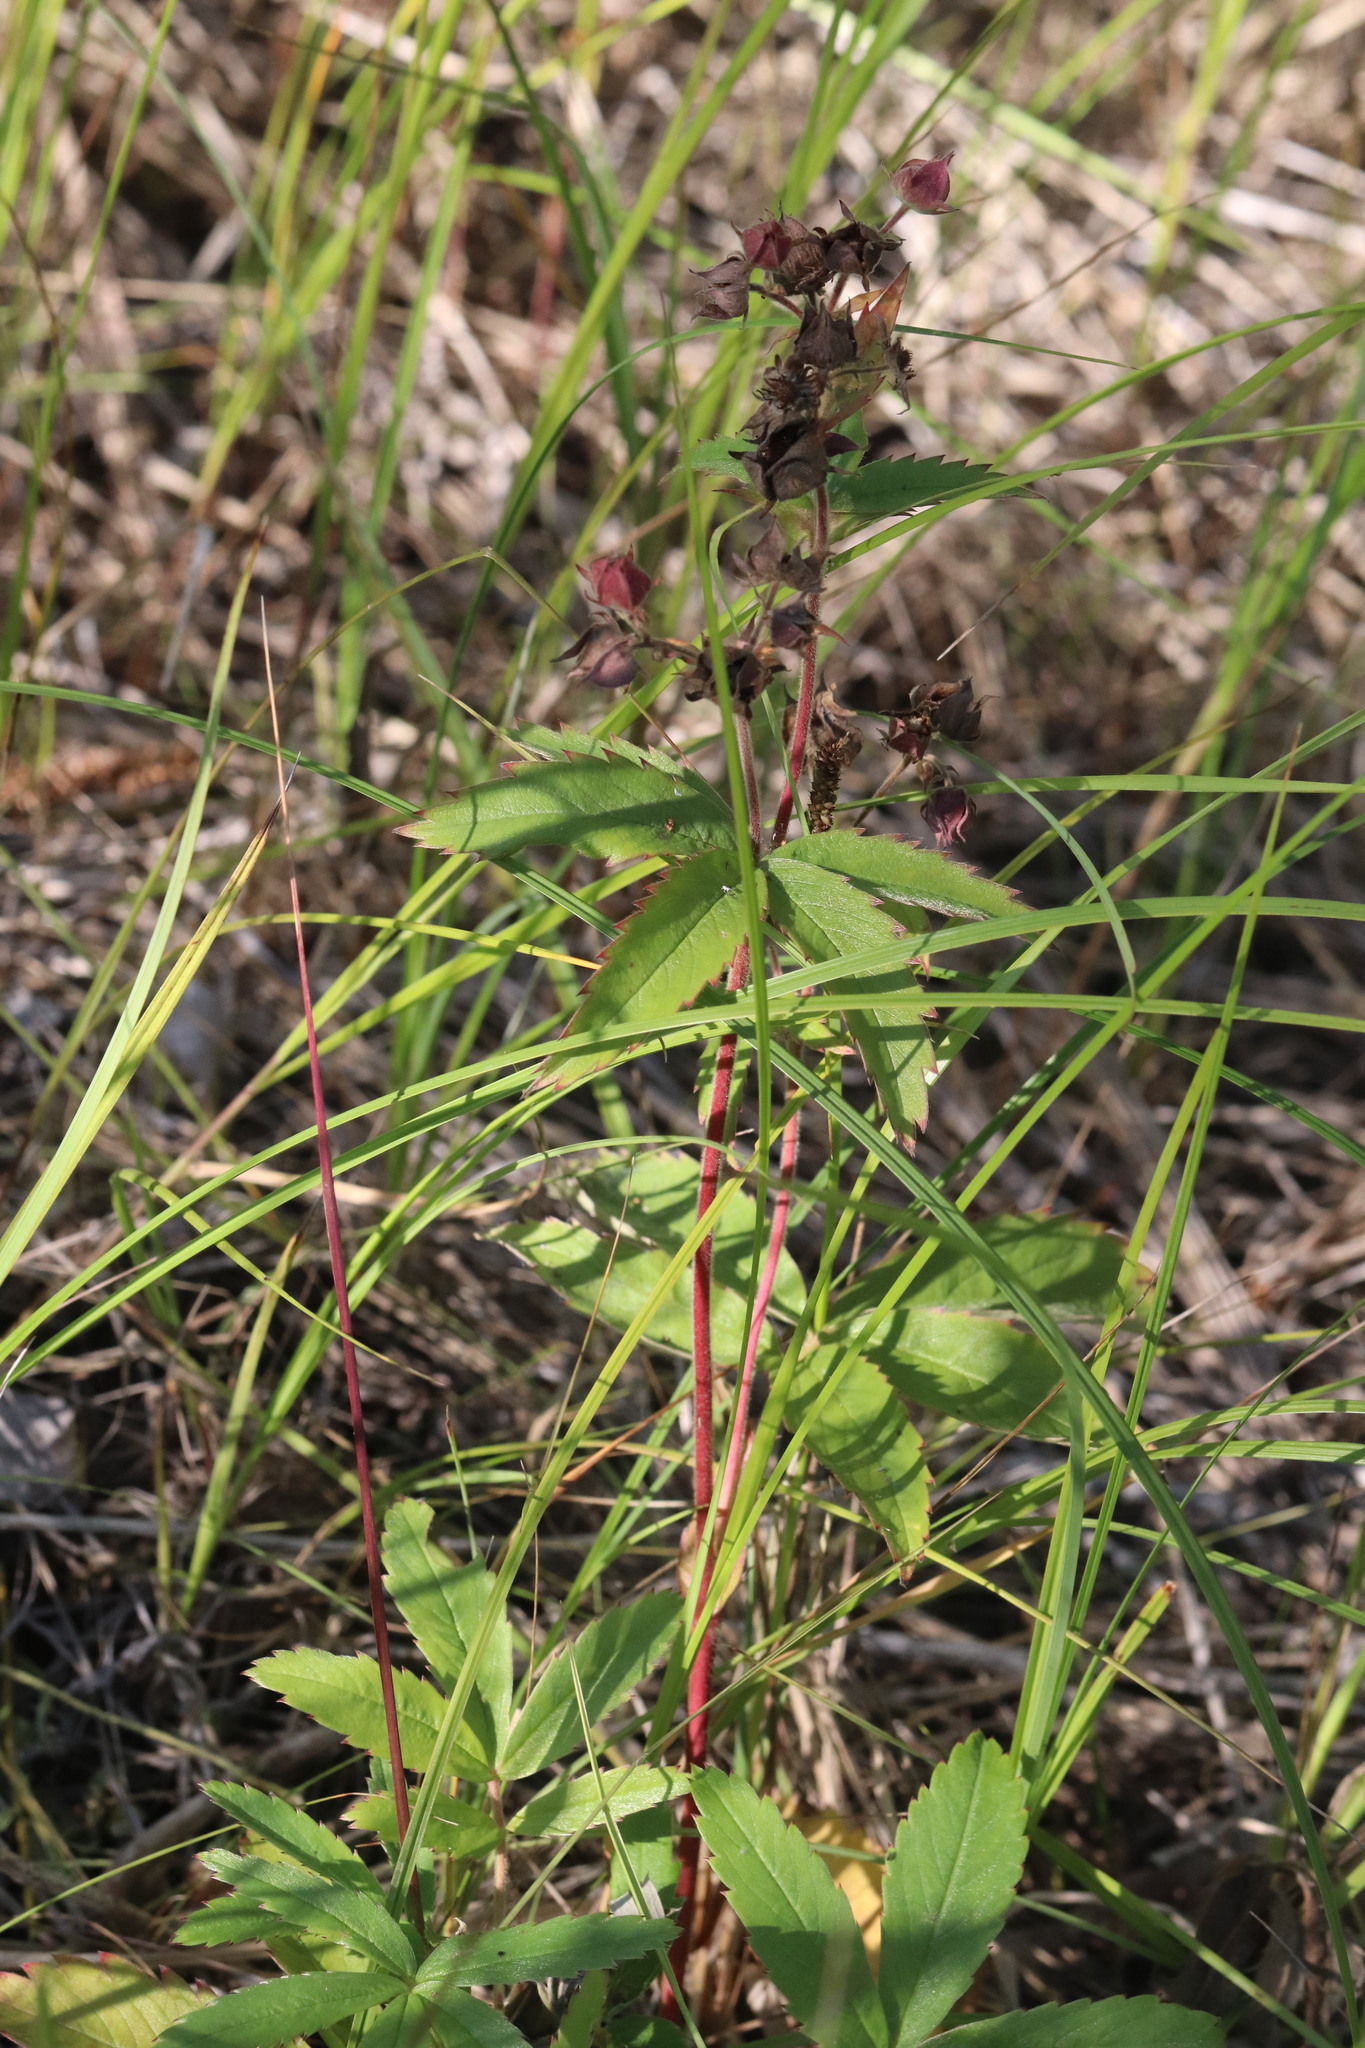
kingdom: Plantae
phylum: Tracheophyta
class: Magnoliopsida
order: Rosales
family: Rosaceae
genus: Comarum
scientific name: Comarum palustre
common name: Marsh cinquefoil
